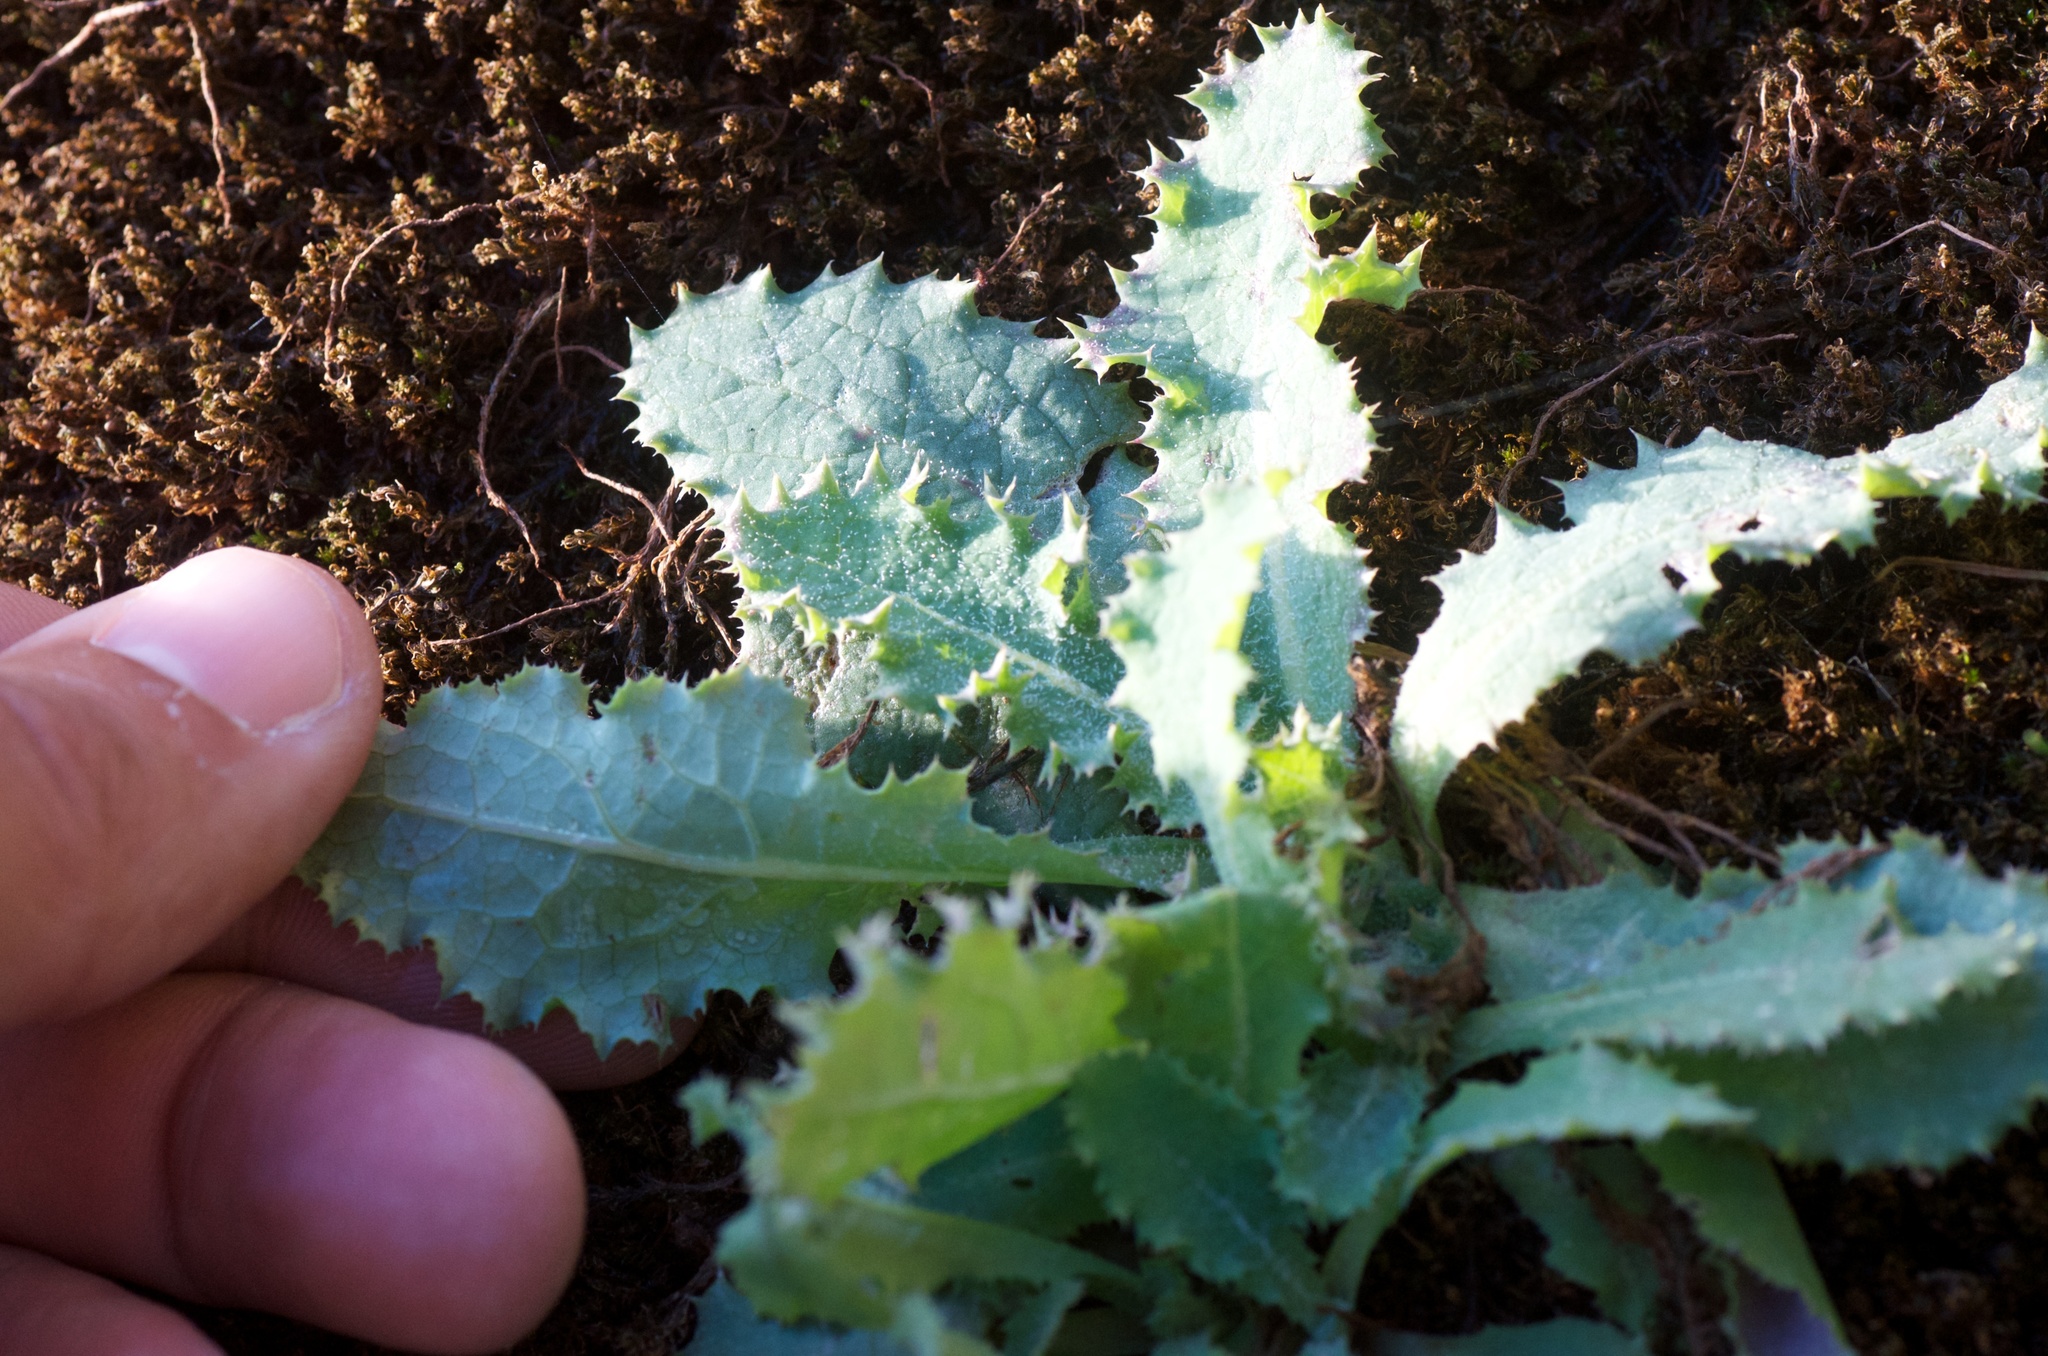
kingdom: Plantae
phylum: Tracheophyta
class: Magnoliopsida
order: Asterales
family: Asteraceae
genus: Sonchus
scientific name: Sonchus kirkii
